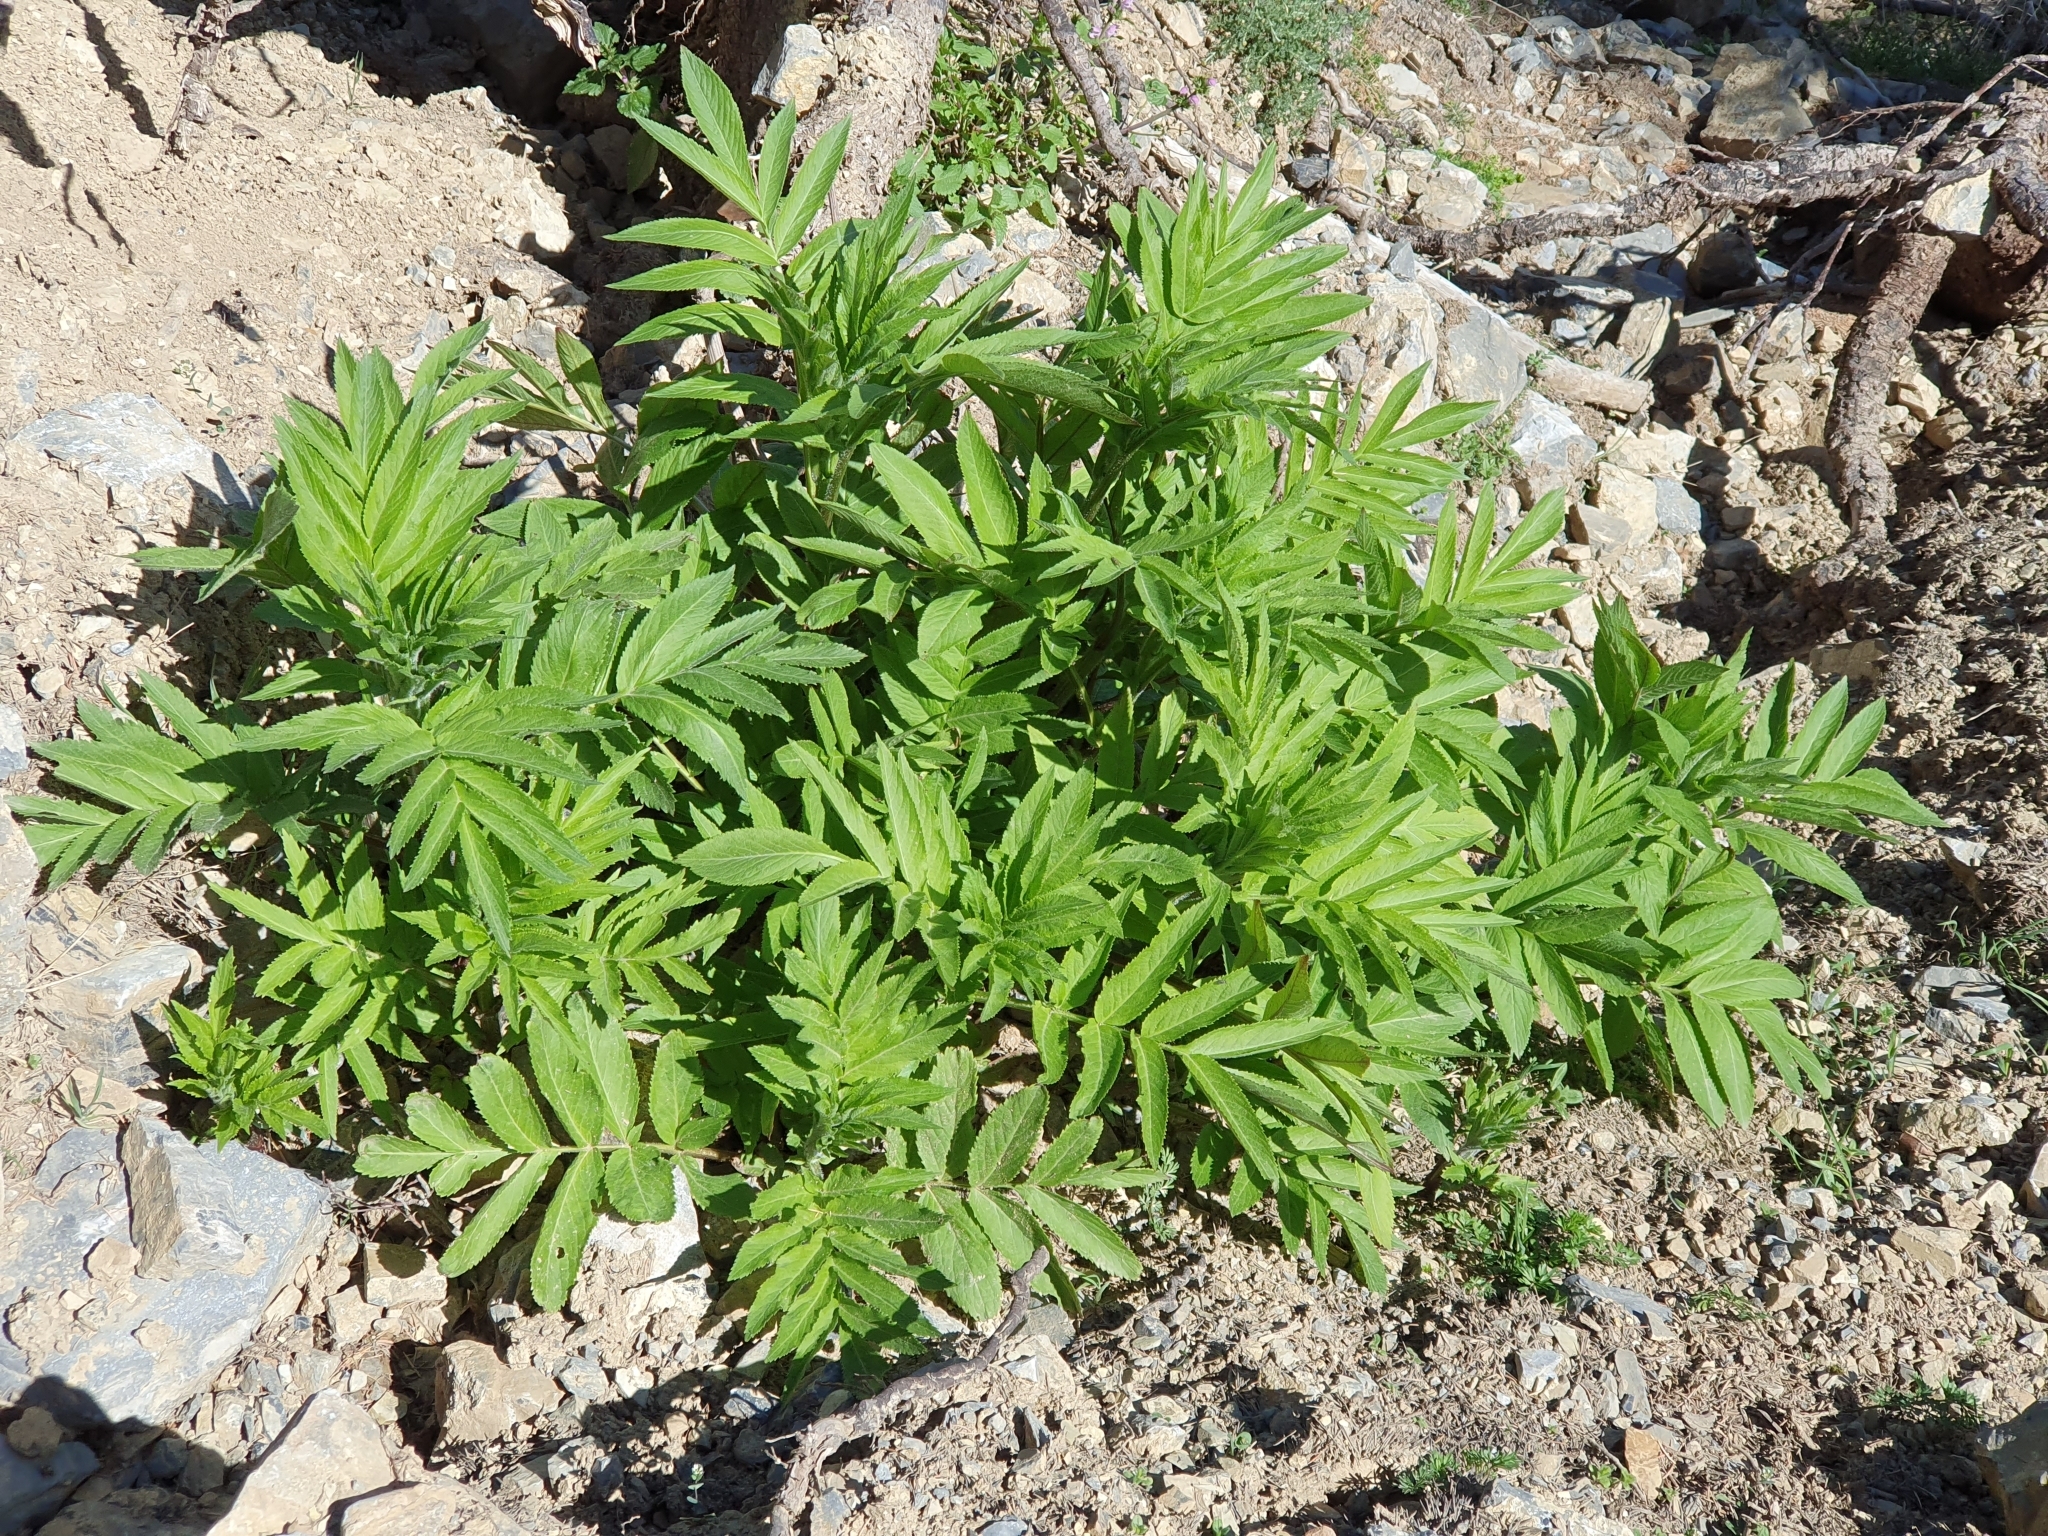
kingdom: Plantae
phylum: Tracheophyta
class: Magnoliopsida
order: Dipsacales
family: Viburnaceae
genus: Sambucus
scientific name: Sambucus ebulus
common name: Dwarf elder
